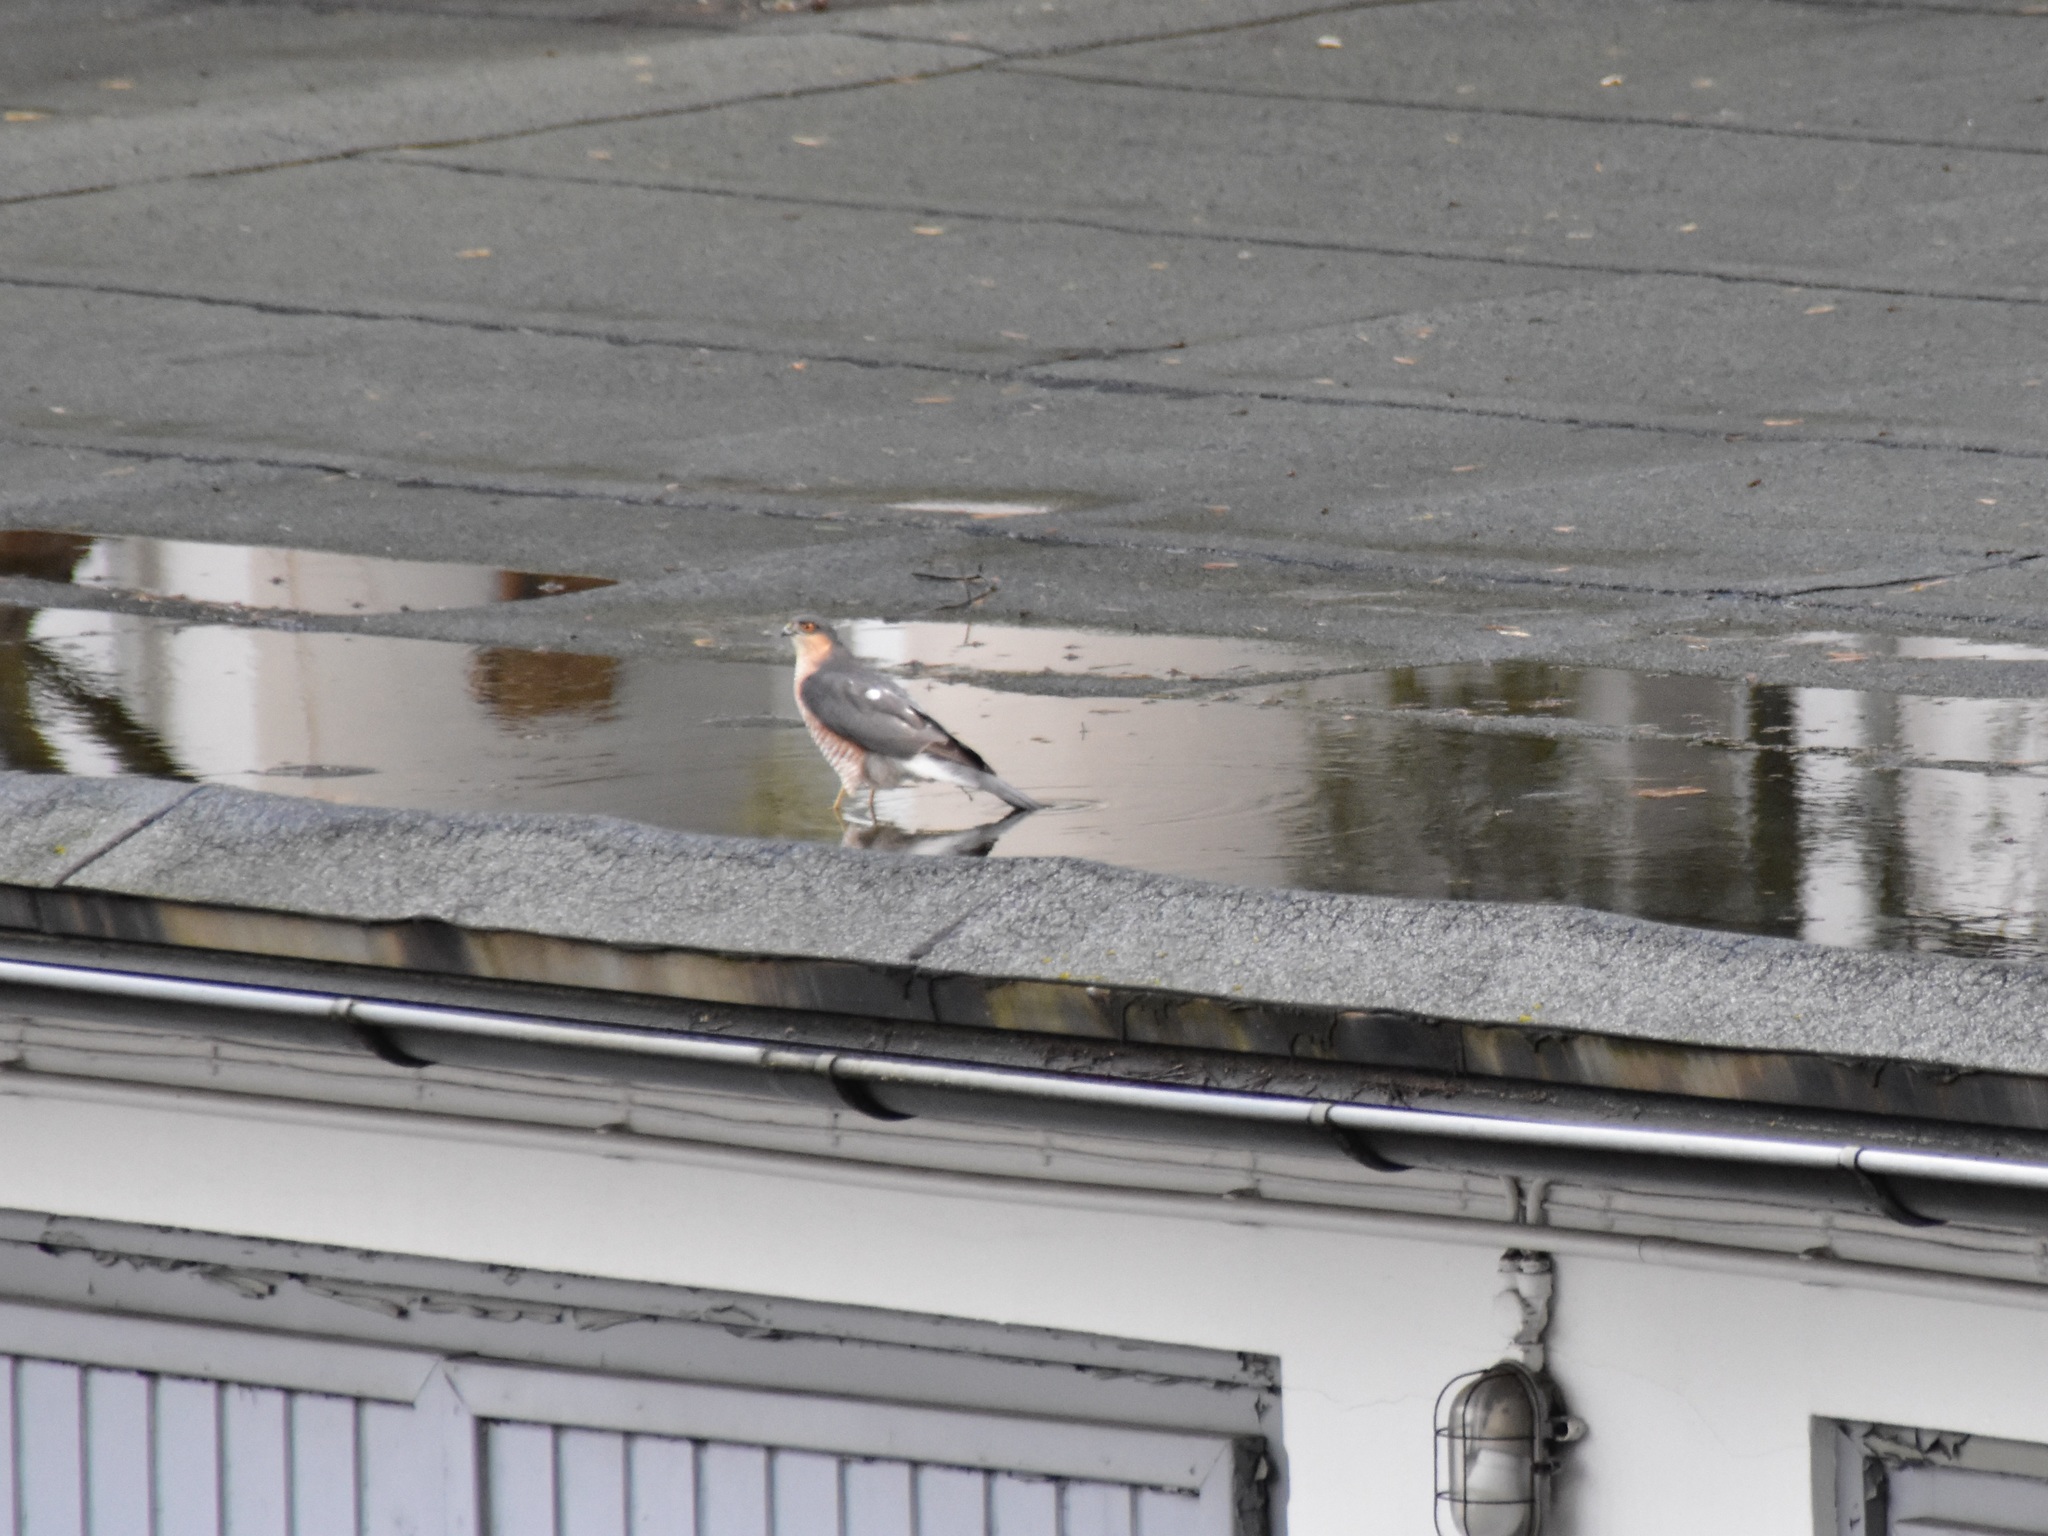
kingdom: Animalia
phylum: Chordata
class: Aves
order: Accipitriformes
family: Accipitridae
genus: Accipiter
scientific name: Accipiter nisus
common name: Eurasian sparrowhawk
